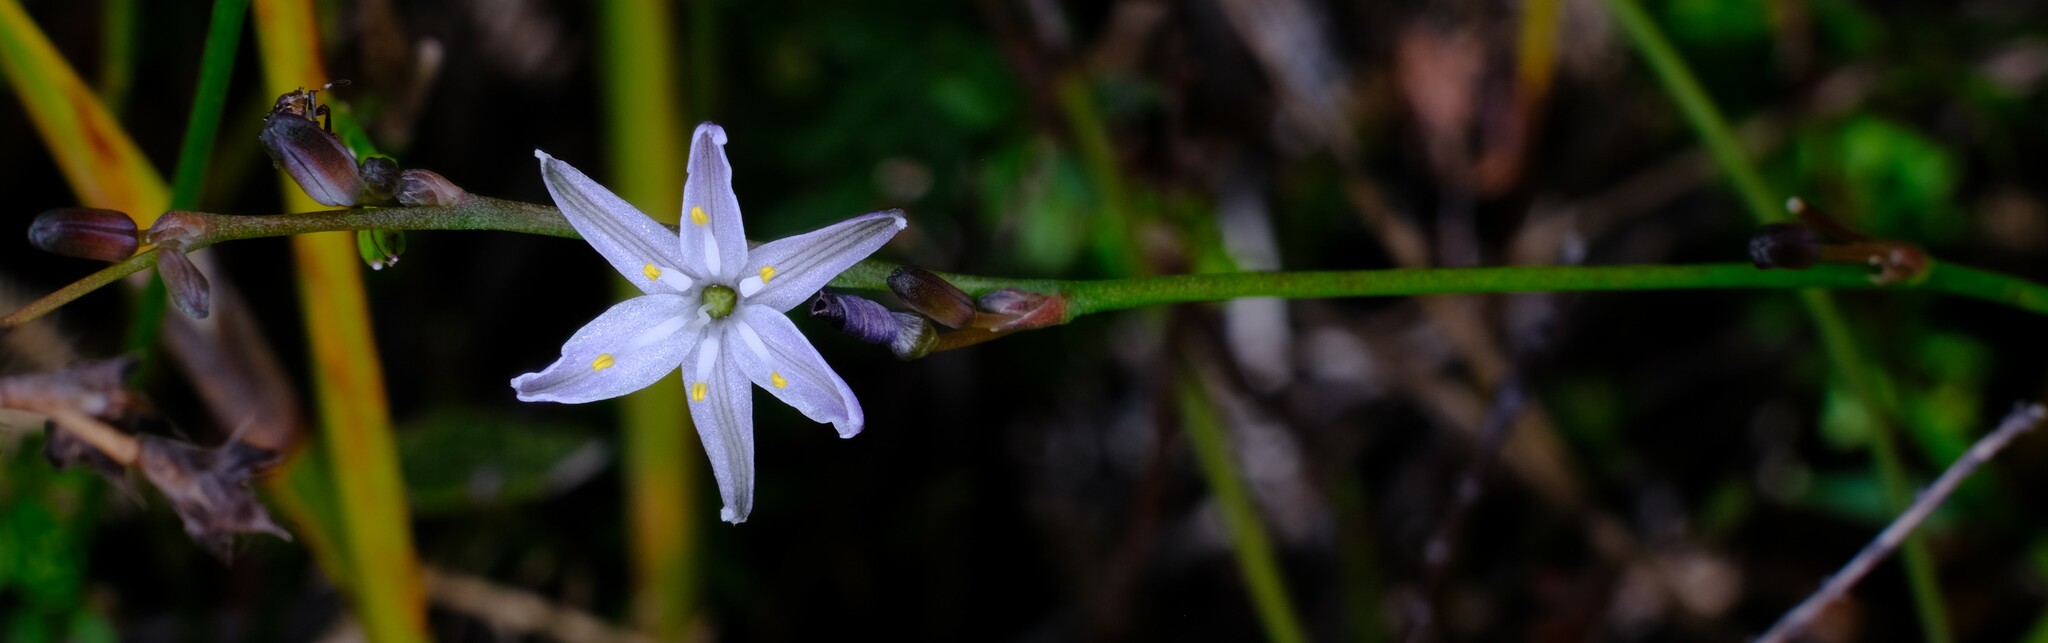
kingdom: Plantae
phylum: Tracheophyta
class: Liliopsida
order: Asparagales
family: Asphodelaceae
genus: Caesia
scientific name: Caesia parviflora
